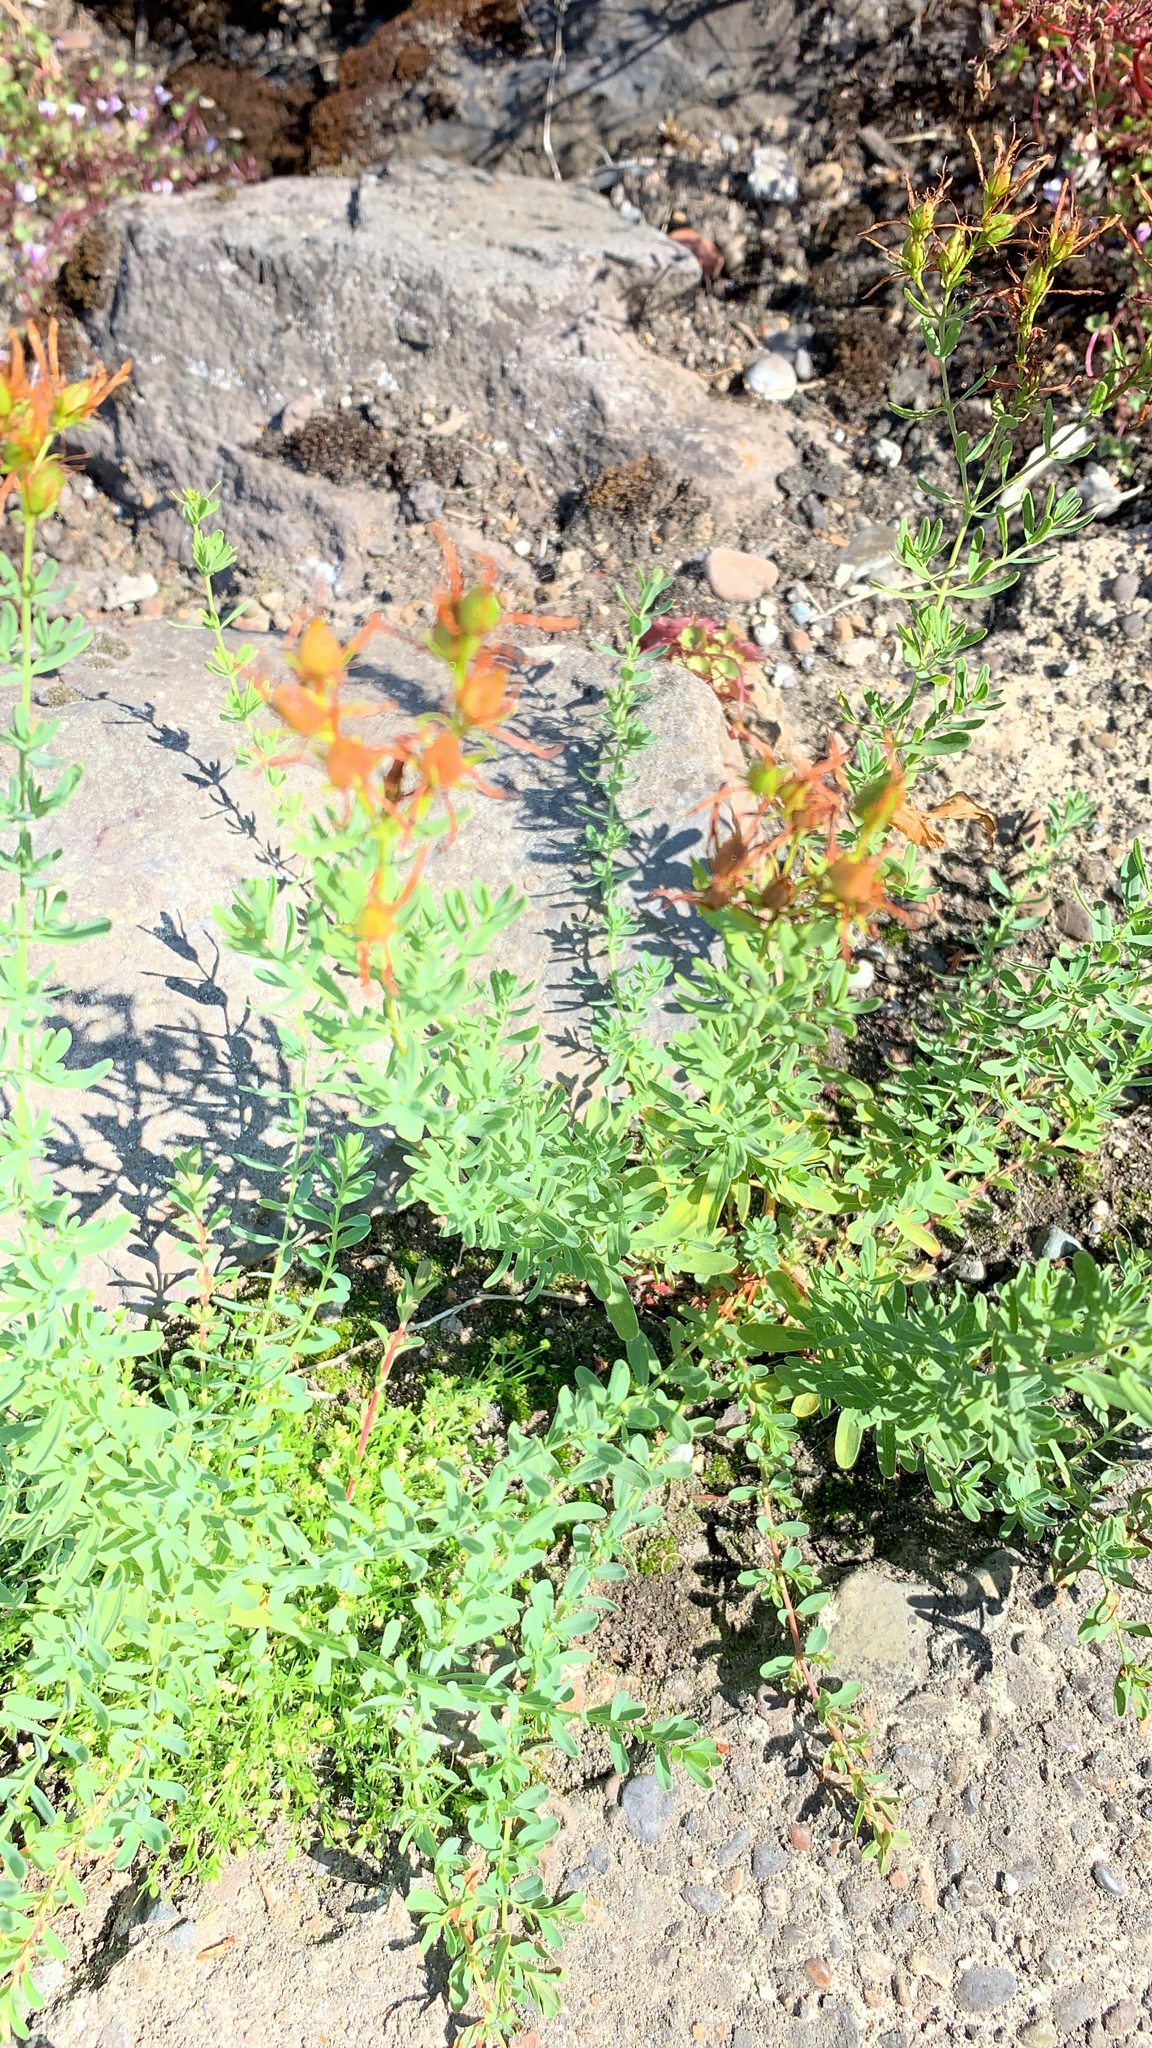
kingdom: Plantae
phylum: Tracheophyta
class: Magnoliopsida
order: Malpighiales
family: Hypericaceae
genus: Hypericum
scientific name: Hypericum perforatum
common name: Common st. johnswort
